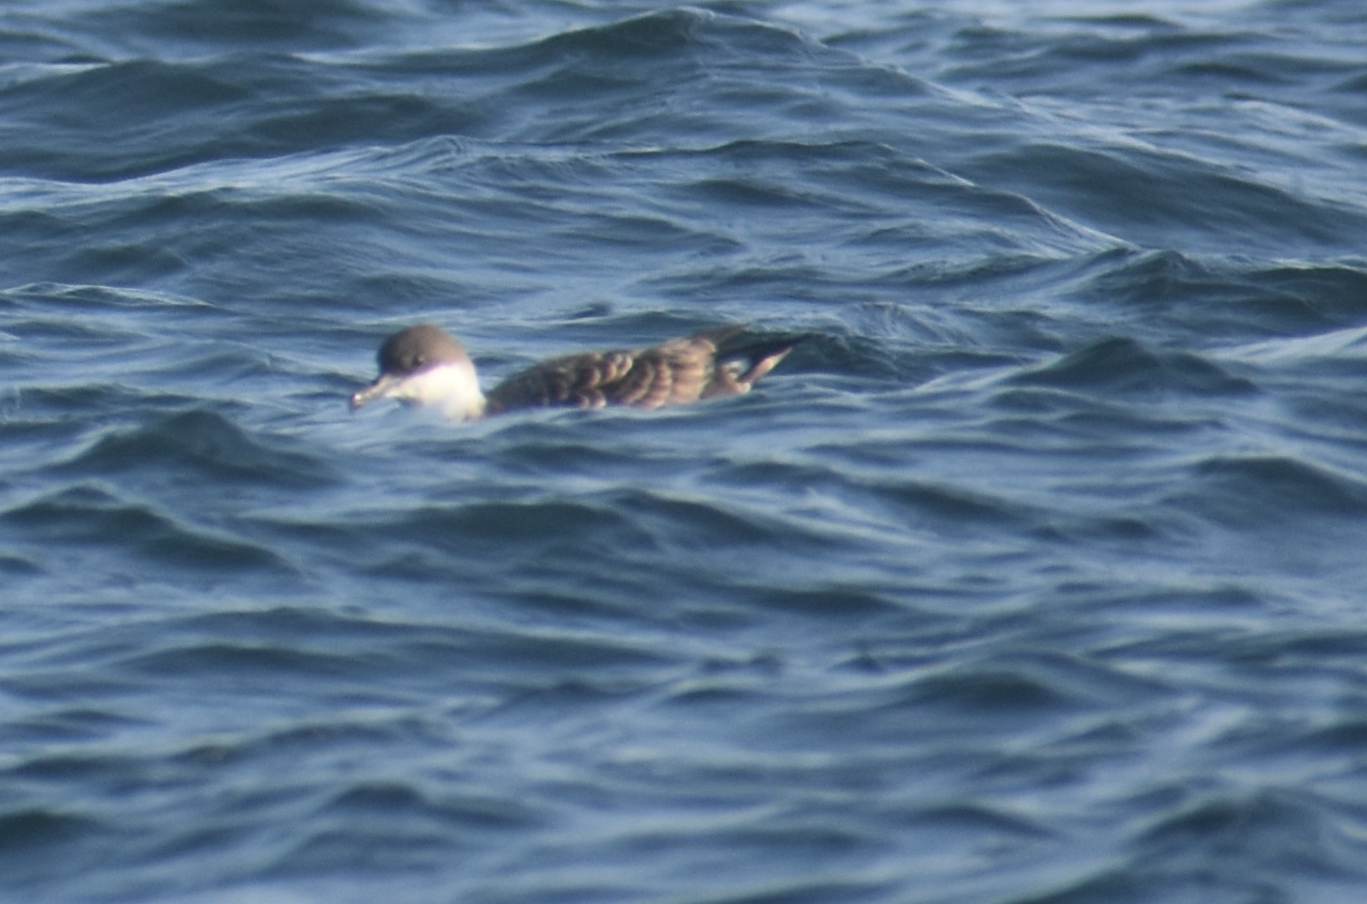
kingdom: Animalia
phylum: Chordata
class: Aves
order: Procellariiformes
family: Procellariidae
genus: Puffinus
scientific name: Puffinus gravis
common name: Great shearwater
